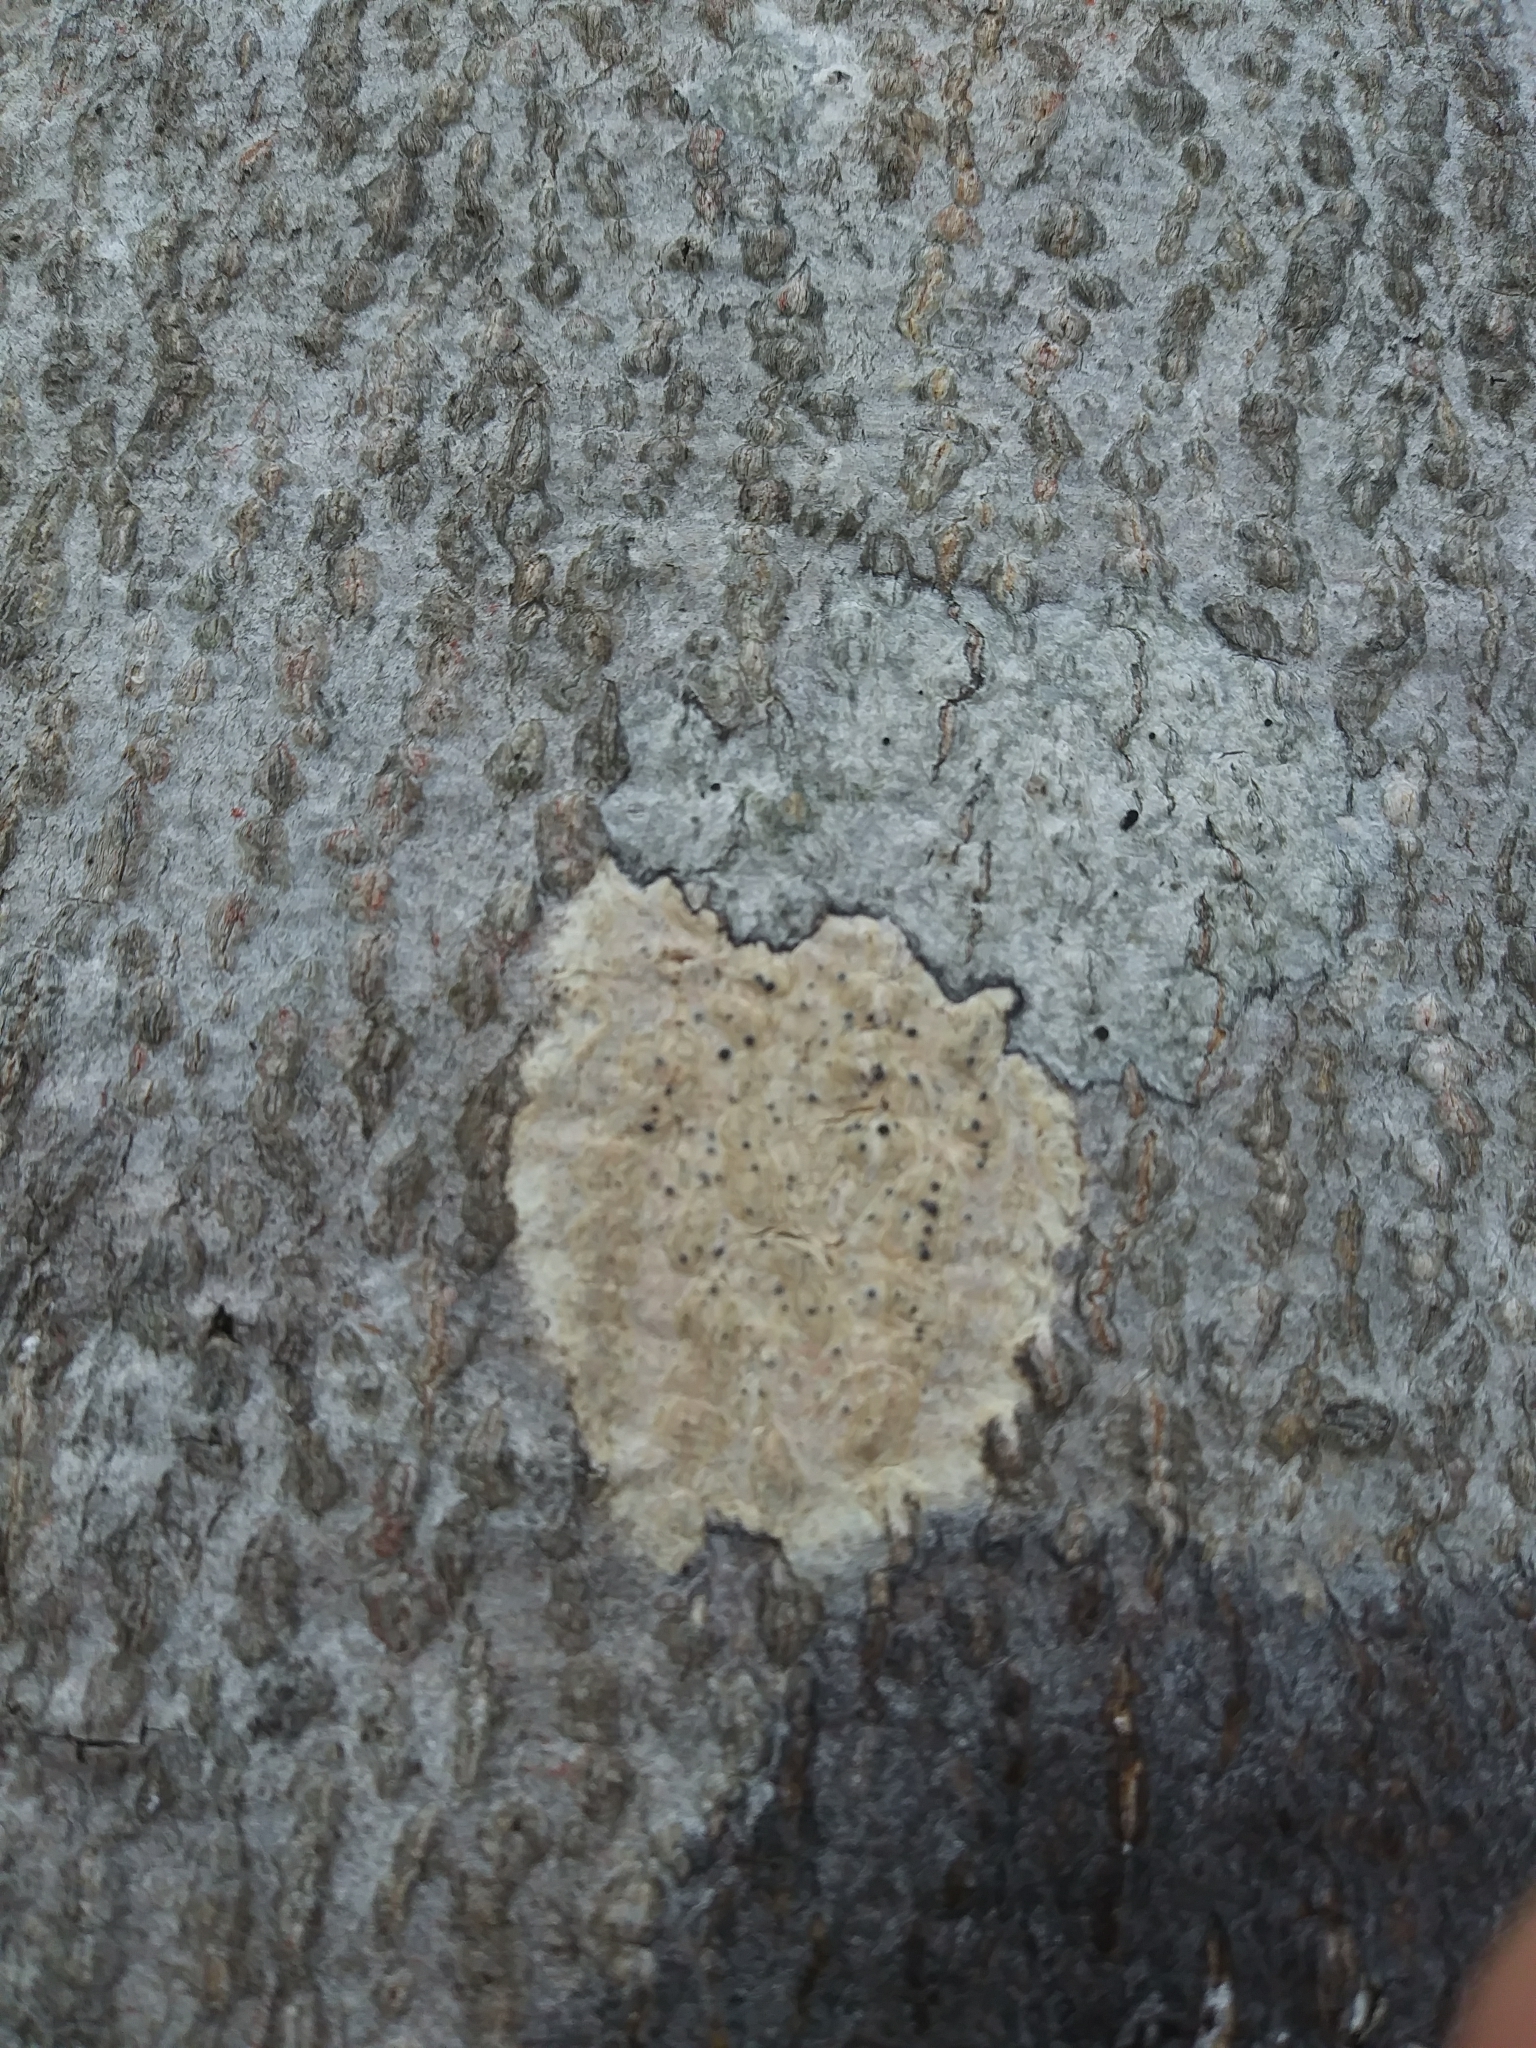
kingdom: Fungi
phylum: Ascomycota
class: Dothideomycetes
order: Trypetheliales
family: Trypetheliaceae
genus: Viridothelium
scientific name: Viridothelium virens
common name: Speckled blister lichen
